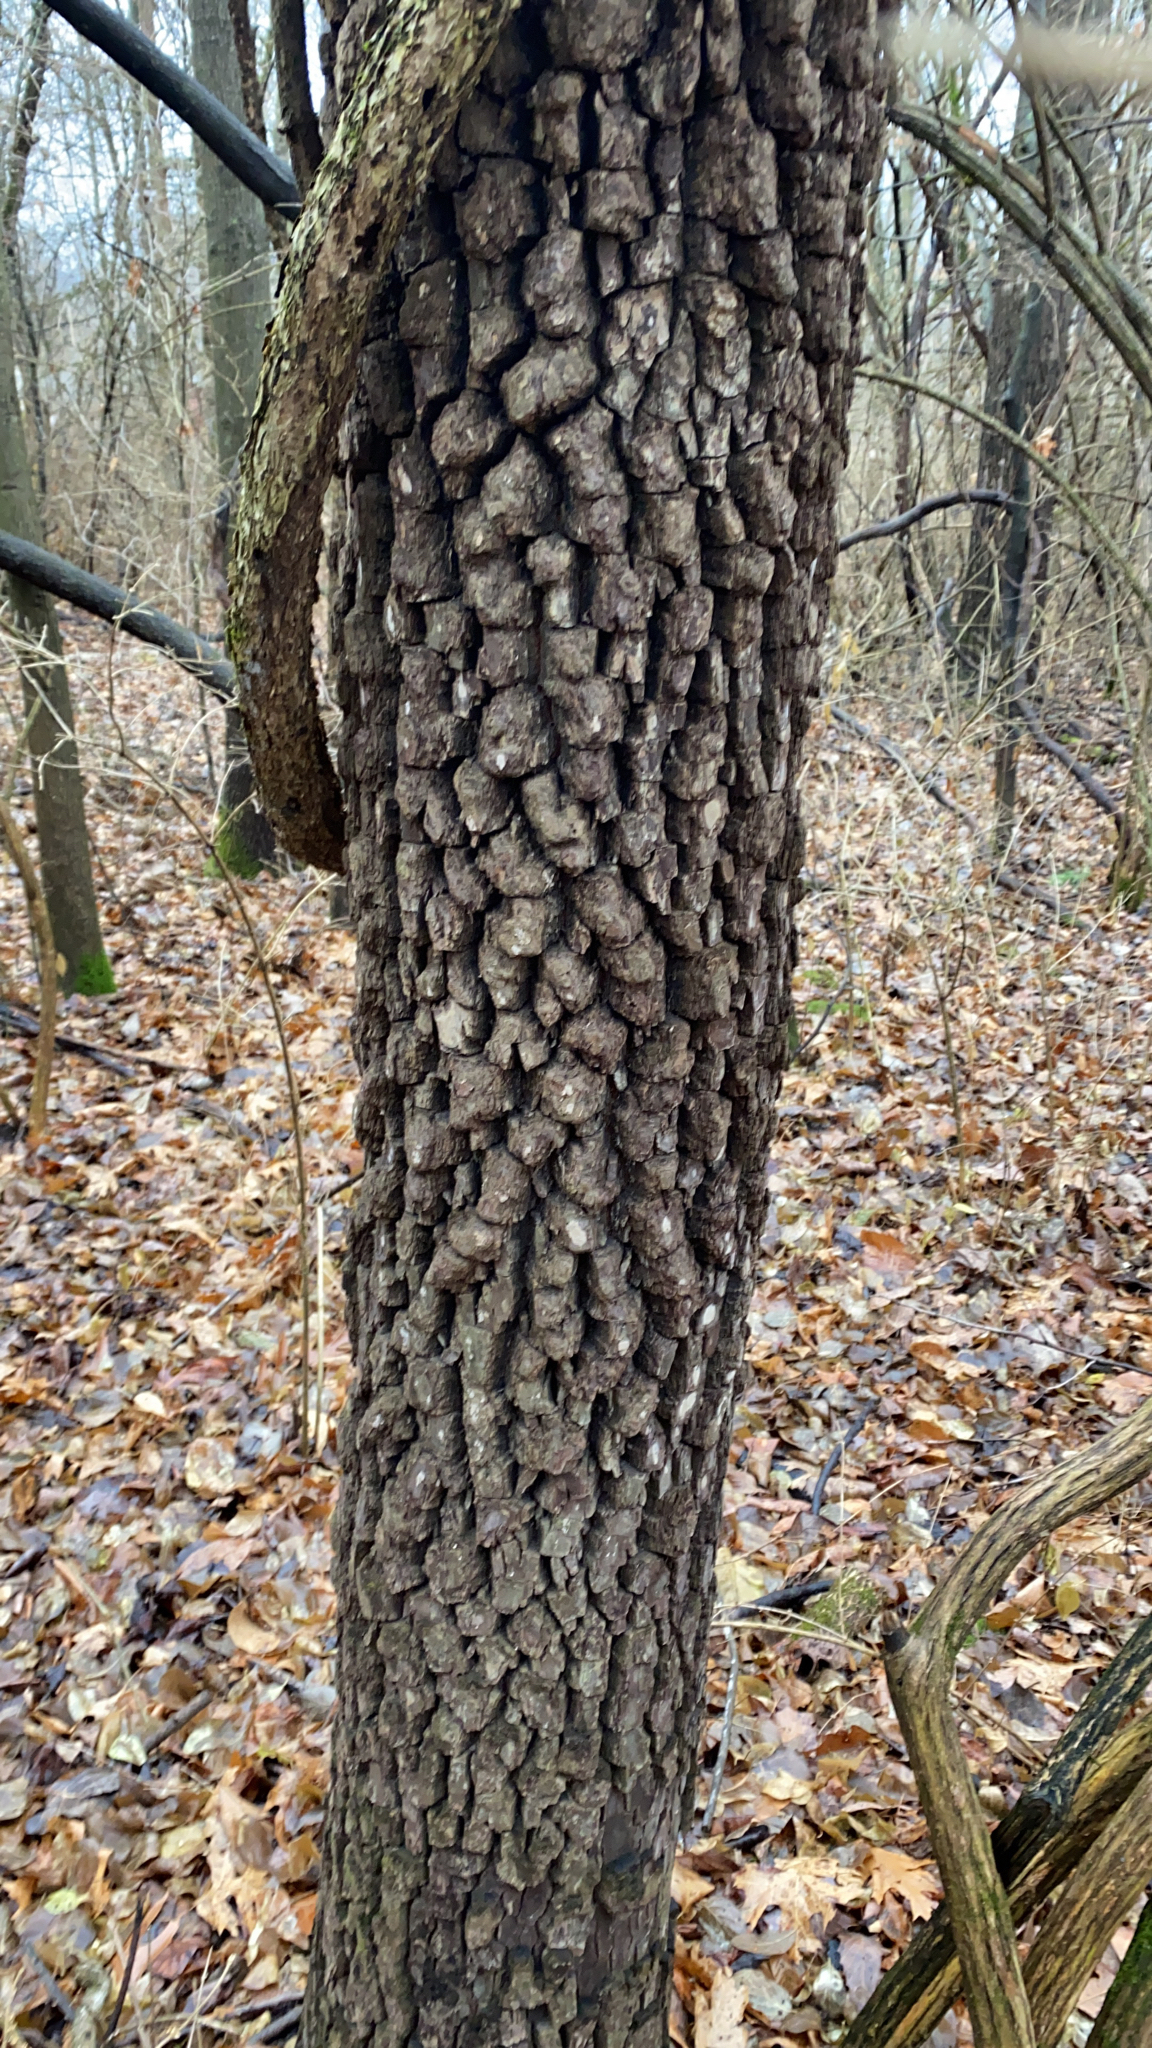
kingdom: Plantae
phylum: Tracheophyta
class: Magnoliopsida
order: Ericales
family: Ebenaceae
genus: Diospyros
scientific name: Diospyros virginiana
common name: Persimmon
